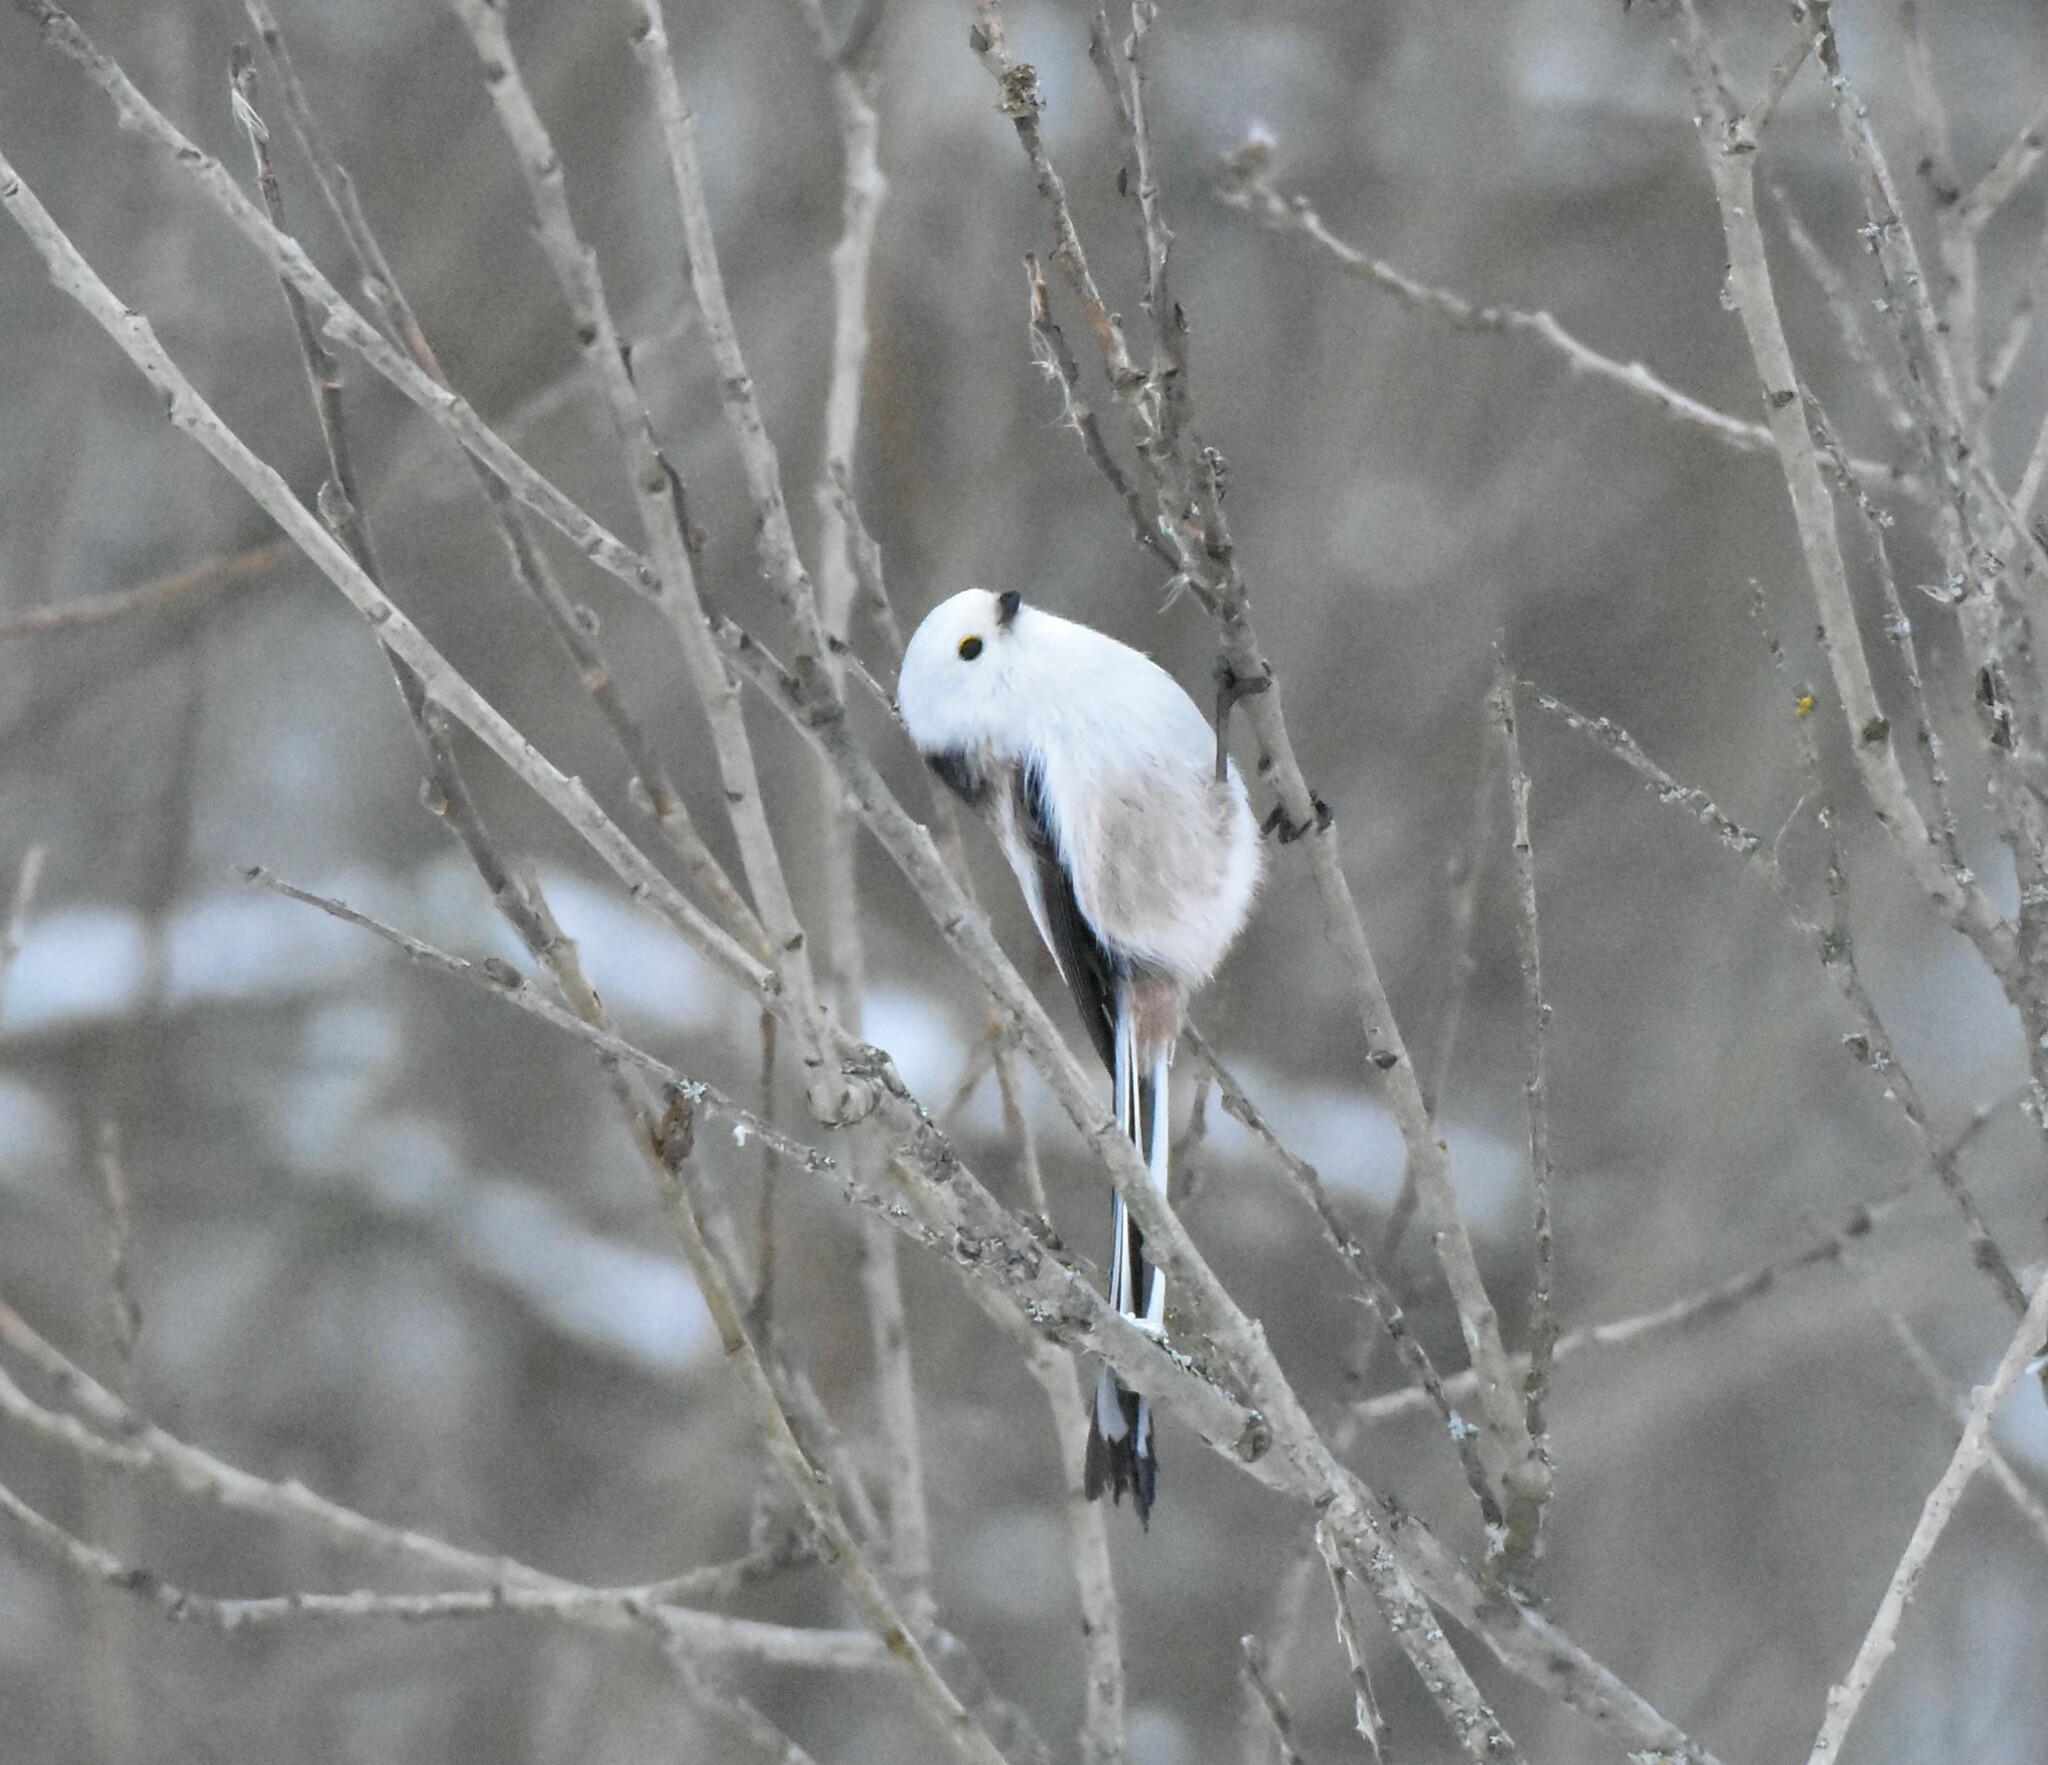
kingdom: Animalia
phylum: Chordata
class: Aves
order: Passeriformes
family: Aegithalidae
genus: Aegithalos
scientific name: Aegithalos caudatus
